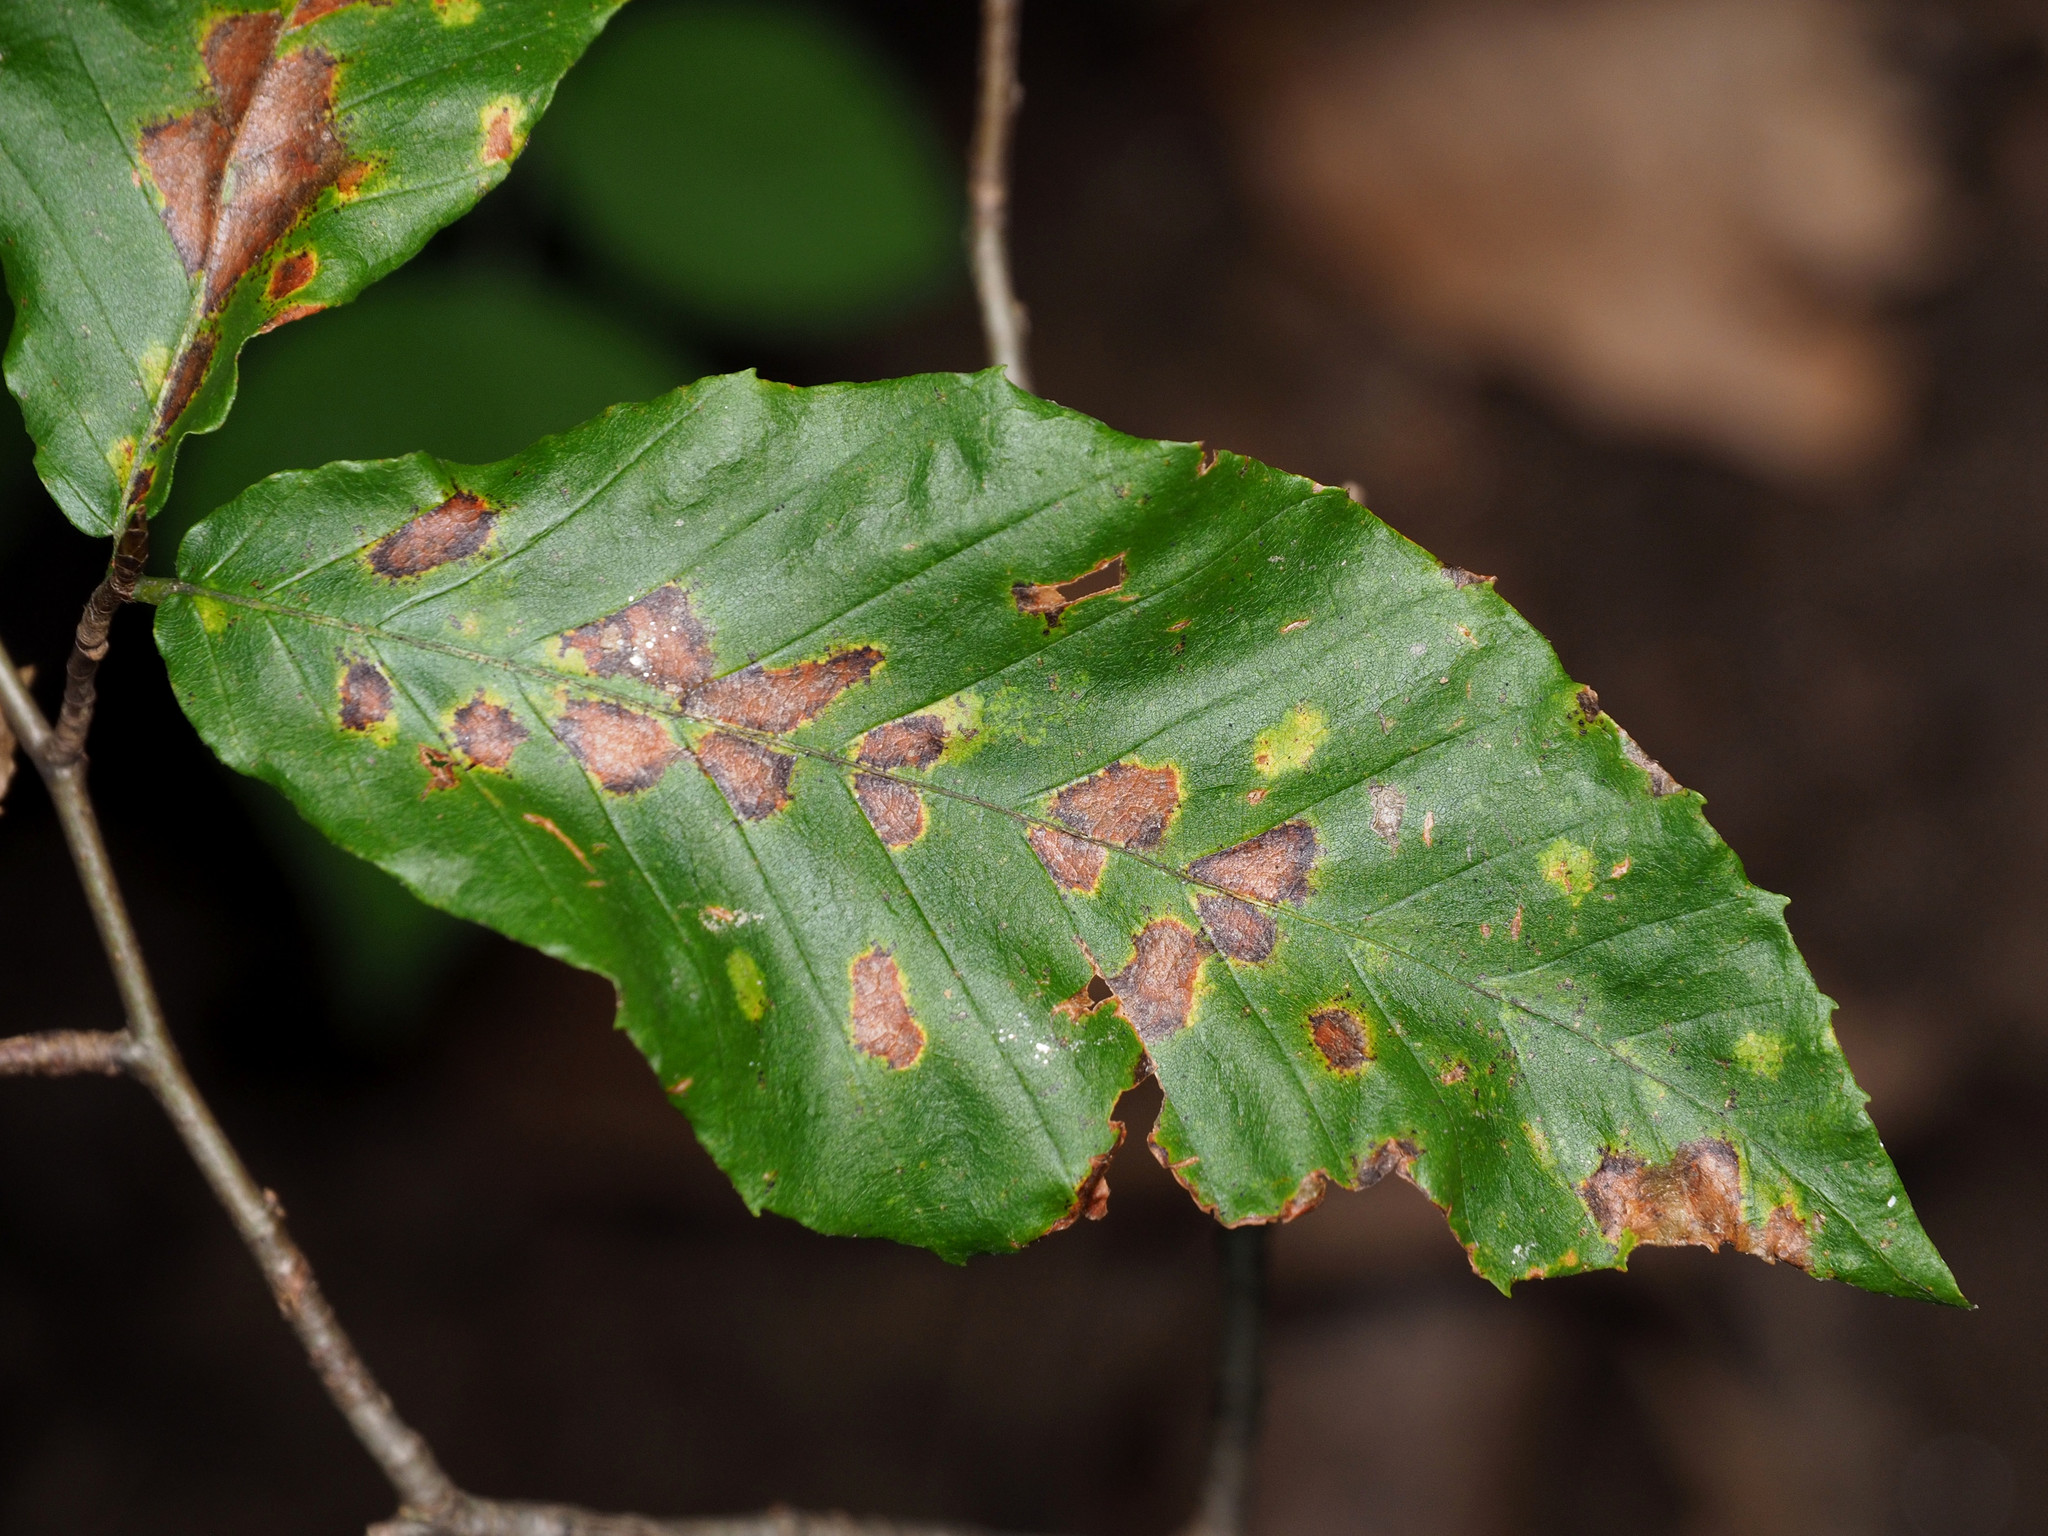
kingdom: Animalia
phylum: Arthropoda
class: Arachnida
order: Trombidiformes
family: Eriophyidae
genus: Acalitus
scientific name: Acalitus
